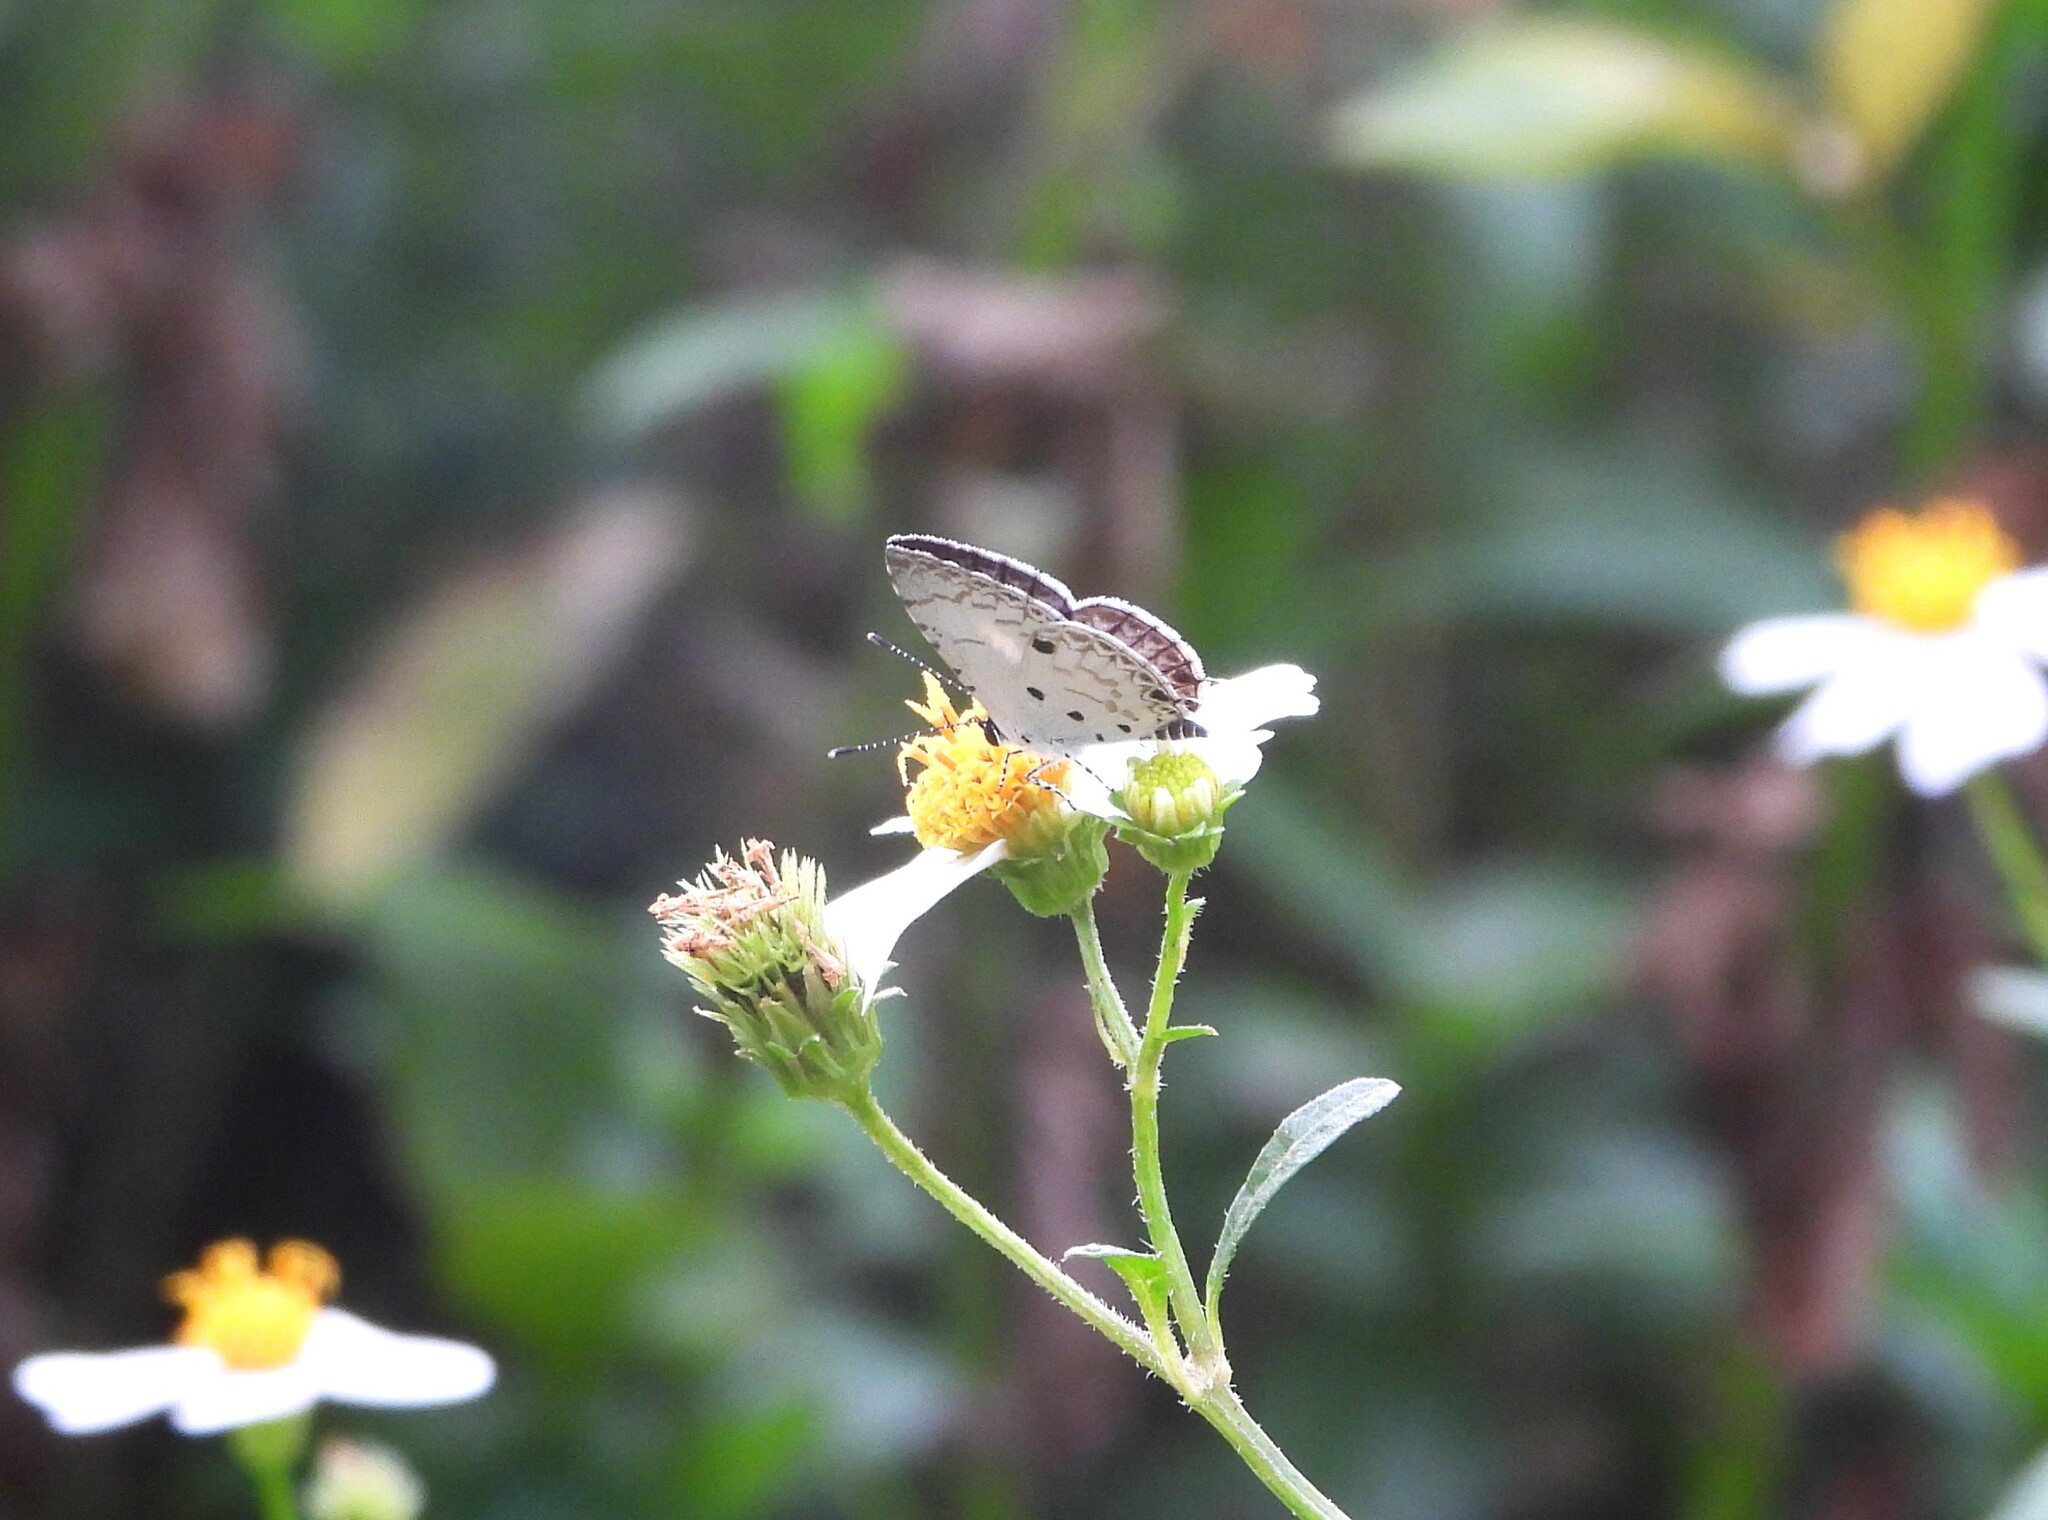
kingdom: Animalia
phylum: Arthropoda
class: Insecta
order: Lepidoptera
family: Lycaenidae
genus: Megisba
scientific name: Megisba malaya
